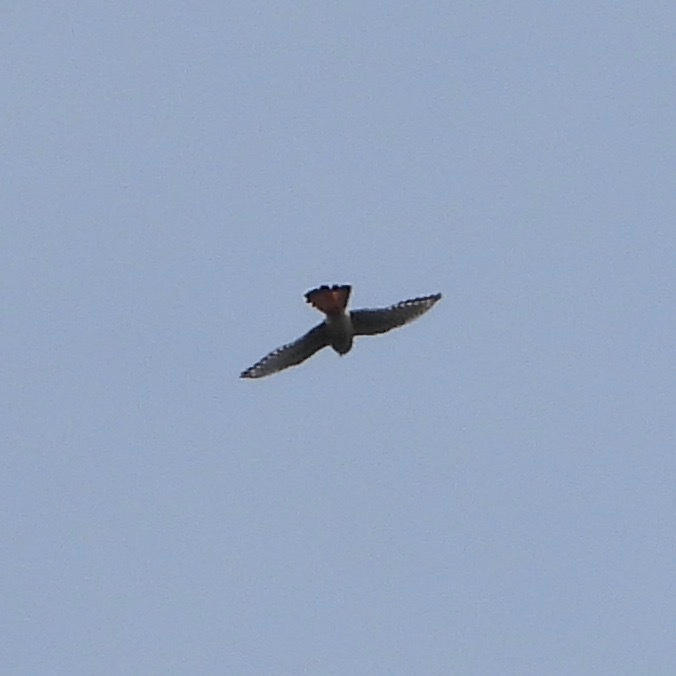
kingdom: Animalia
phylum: Chordata
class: Aves
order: Falconiformes
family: Falconidae
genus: Falco
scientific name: Falco sparverius
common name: American kestrel
